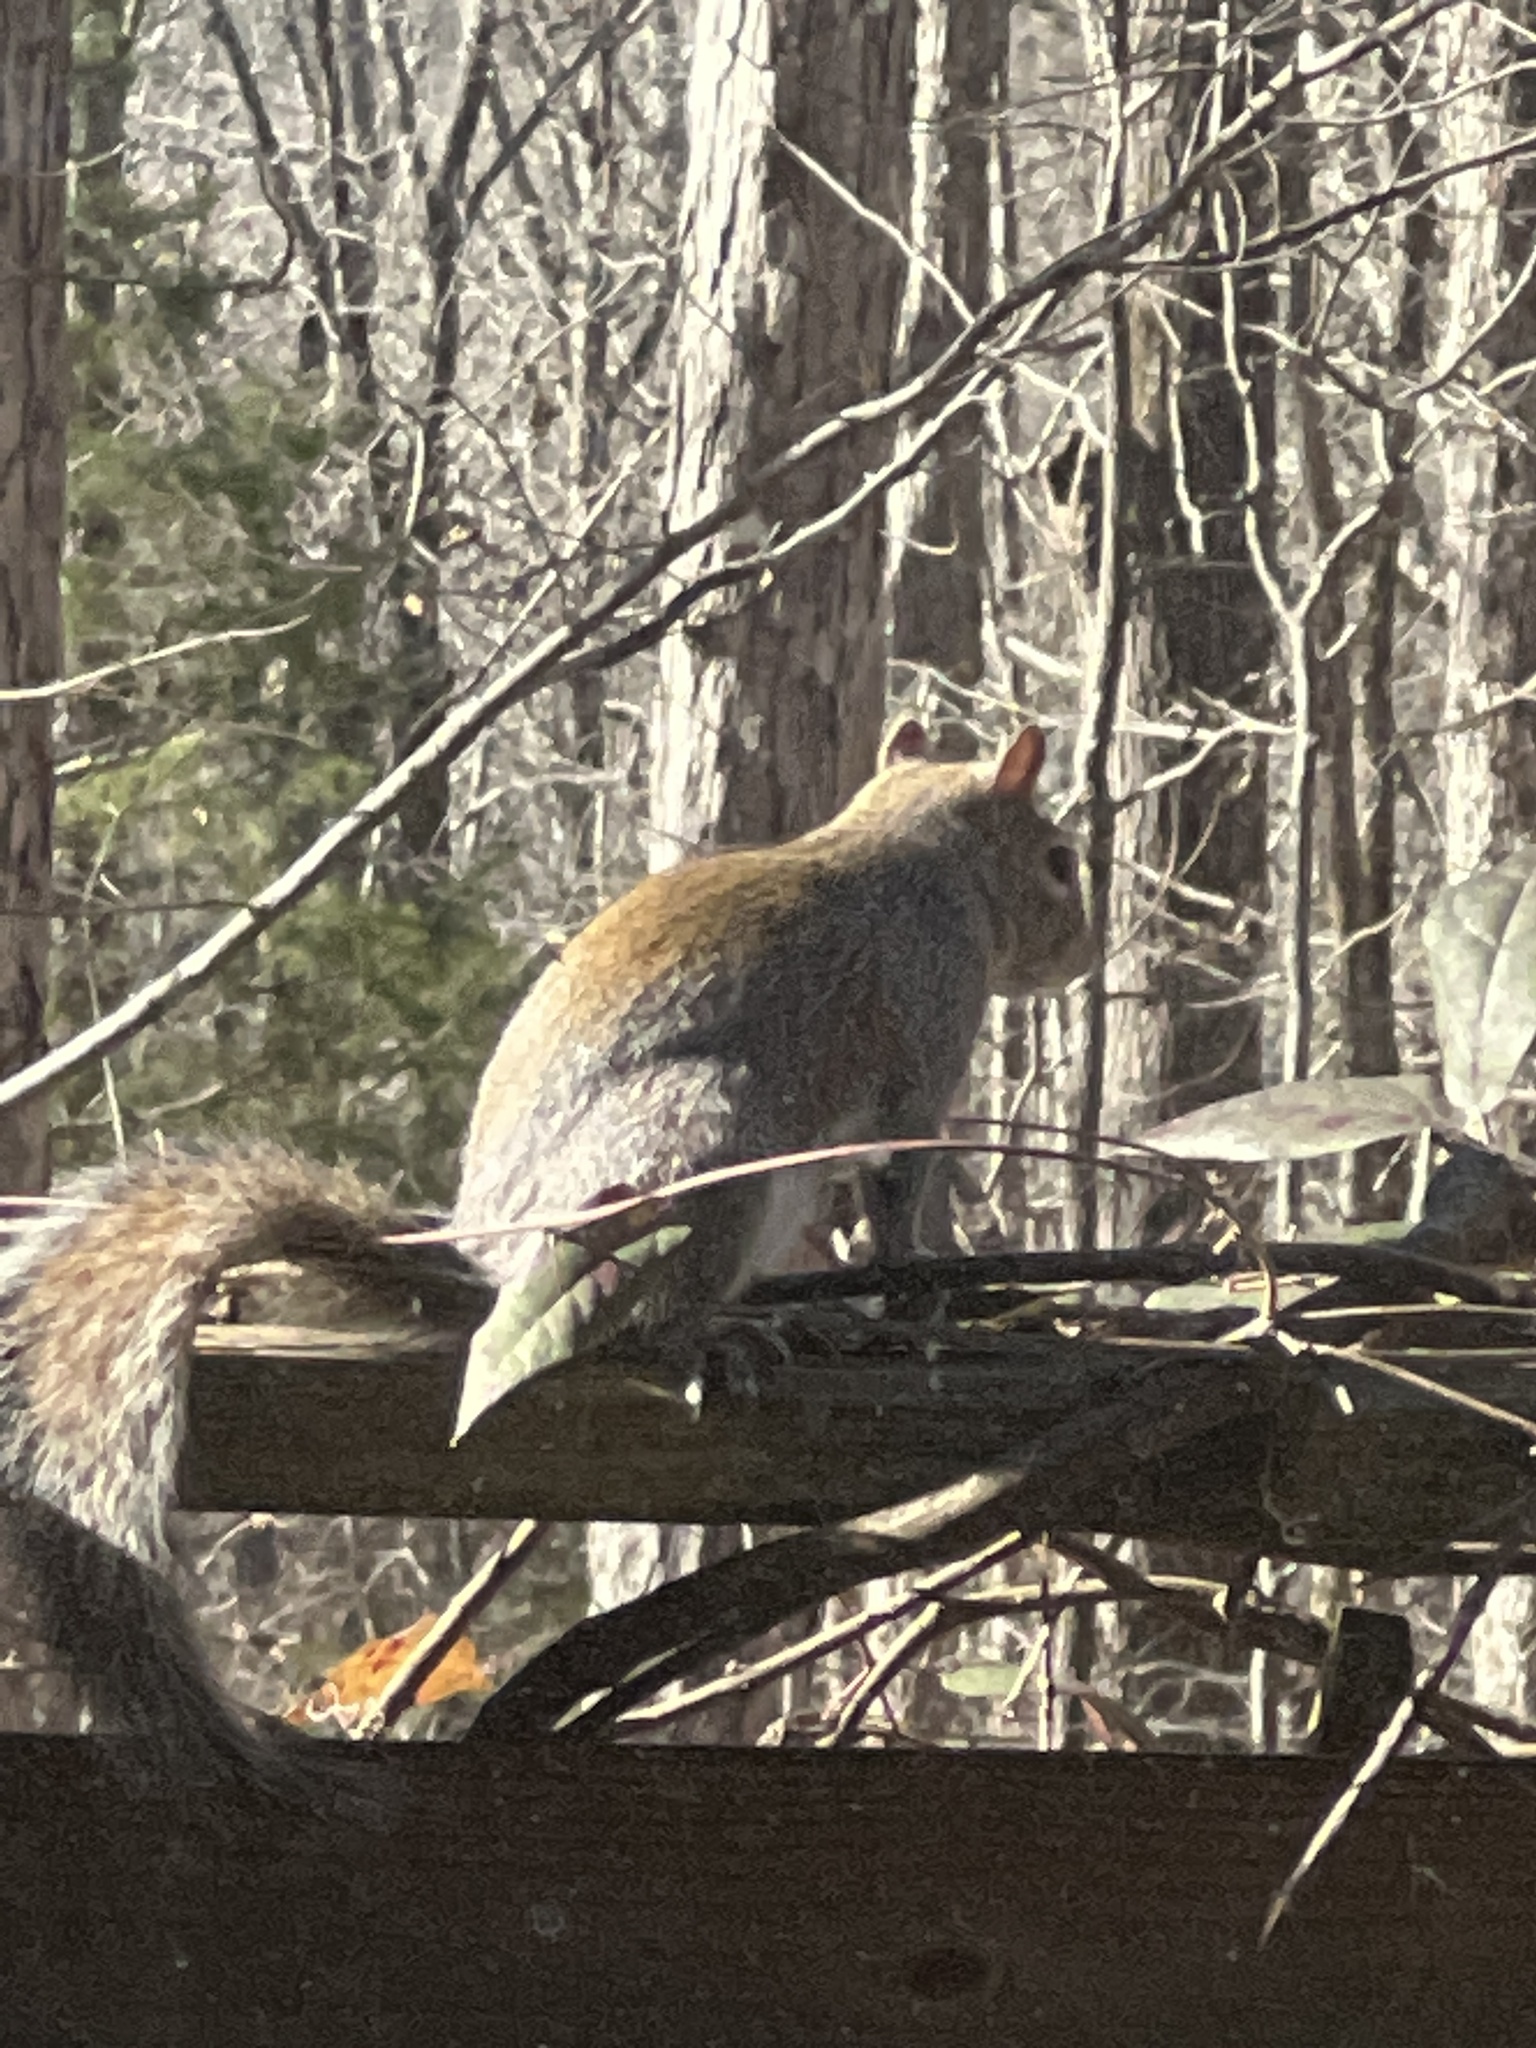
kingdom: Animalia
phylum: Chordata
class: Mammalia
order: Rodentia
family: Sciuridae
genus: Sciurus
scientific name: Sciurus carolinensis
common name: Eastern gray squirrel
